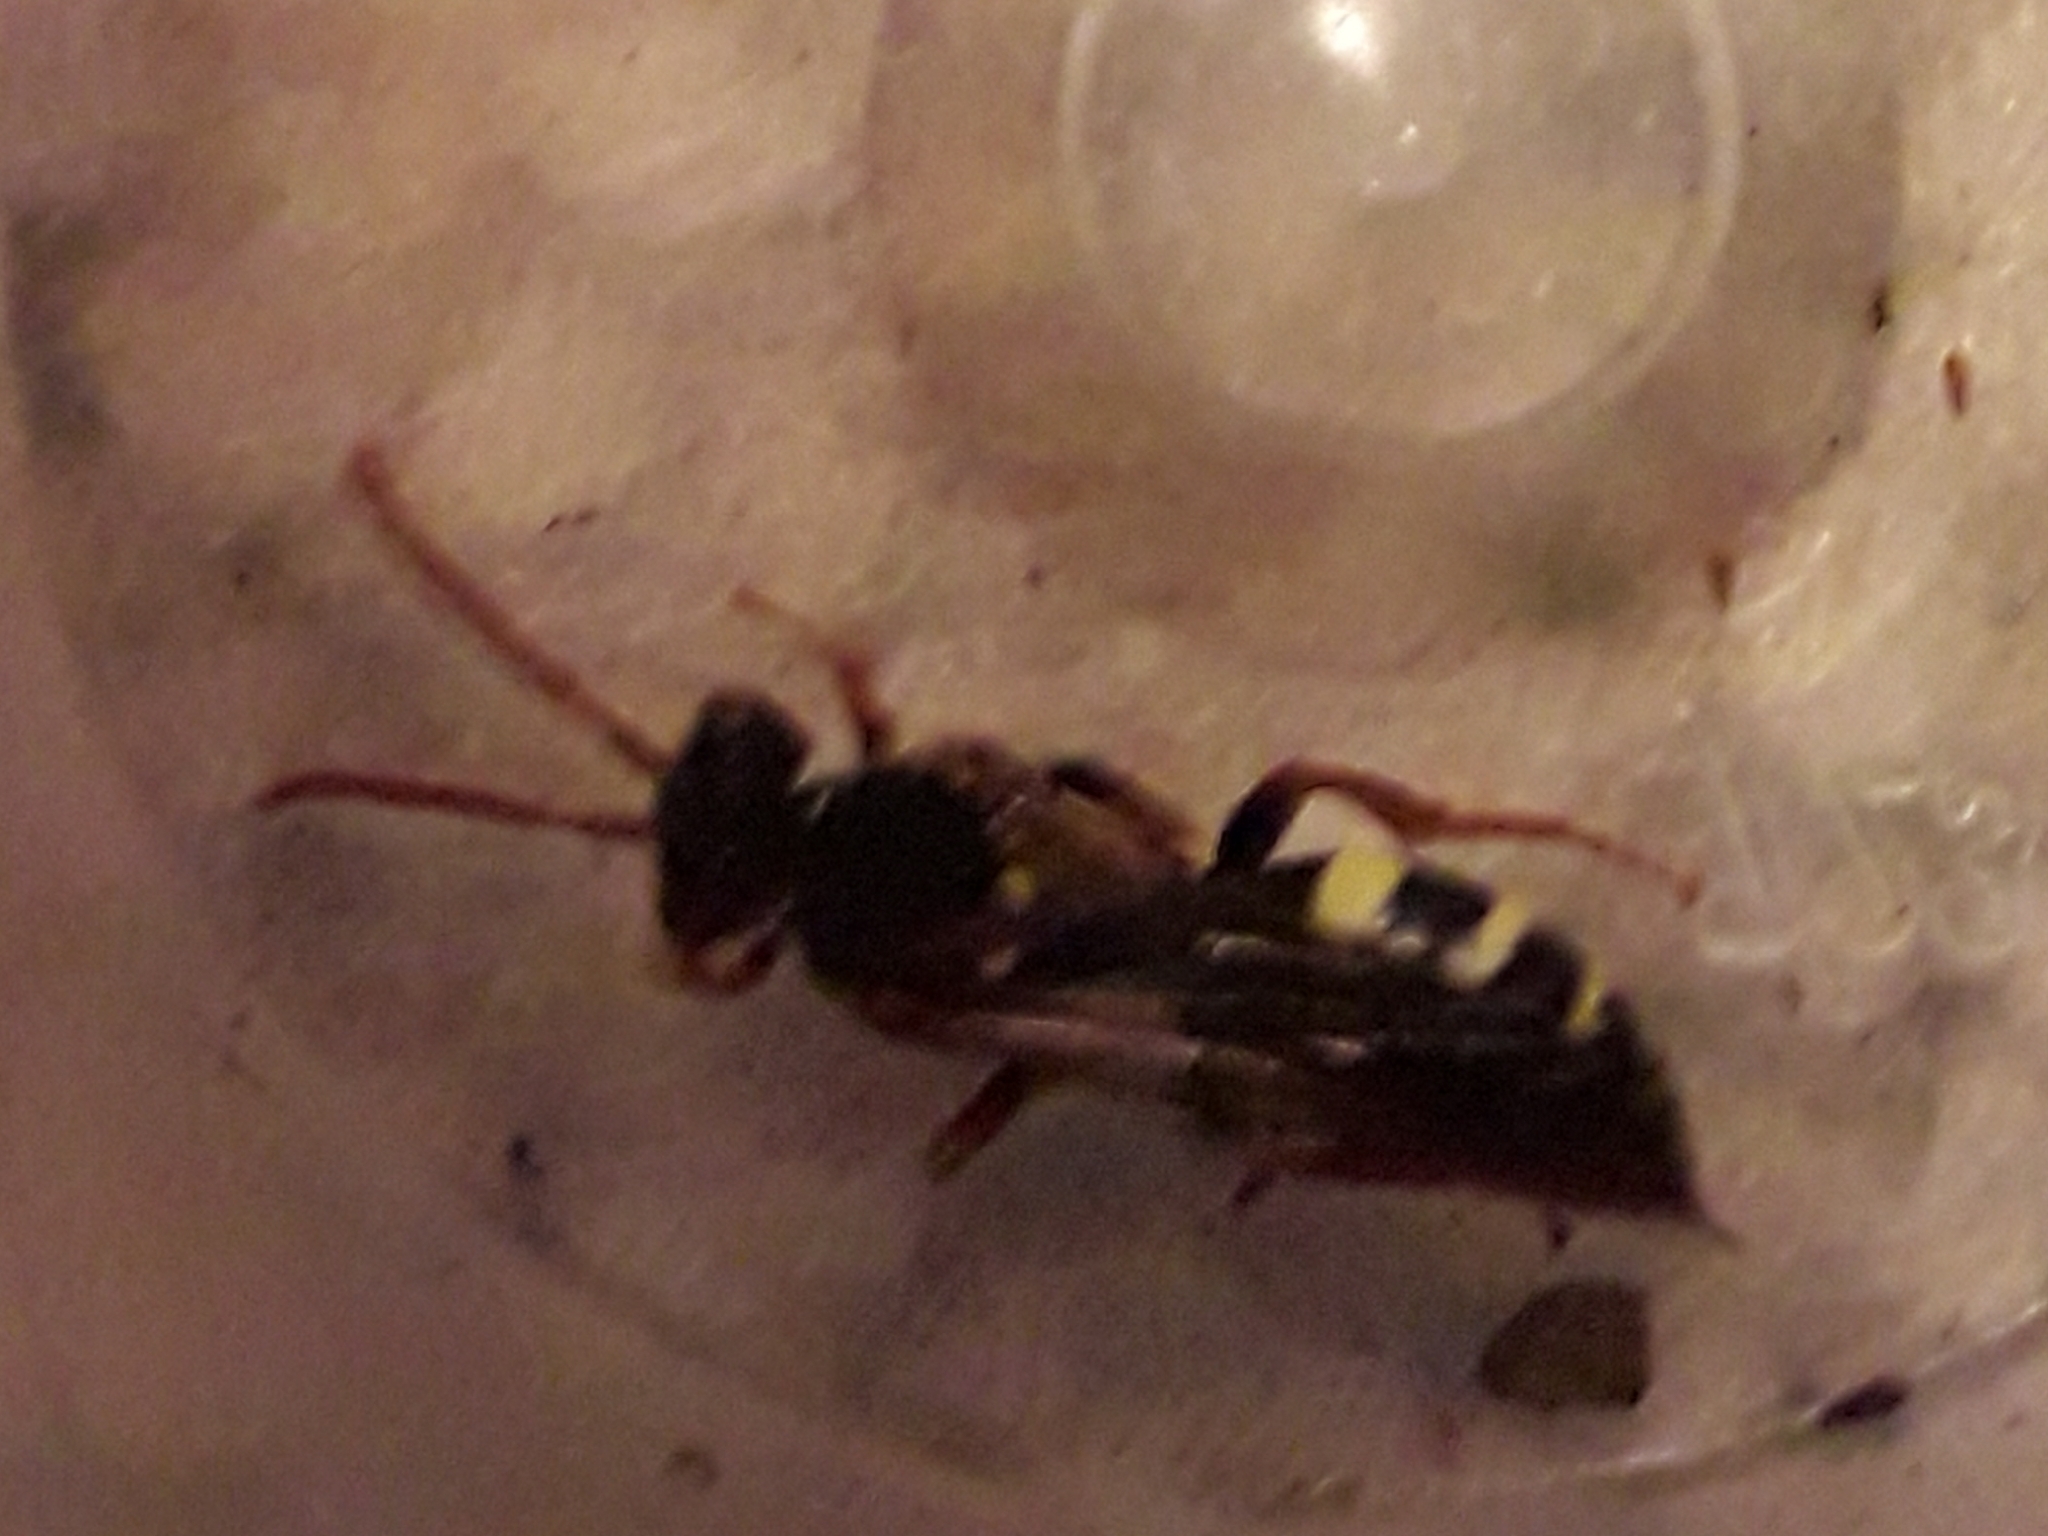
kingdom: Animalia
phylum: Arthropoda
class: Insecta
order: Hymenoptera
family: Apidae
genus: Nomada
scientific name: Nomada marshamella
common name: Marsham's nomad bee
